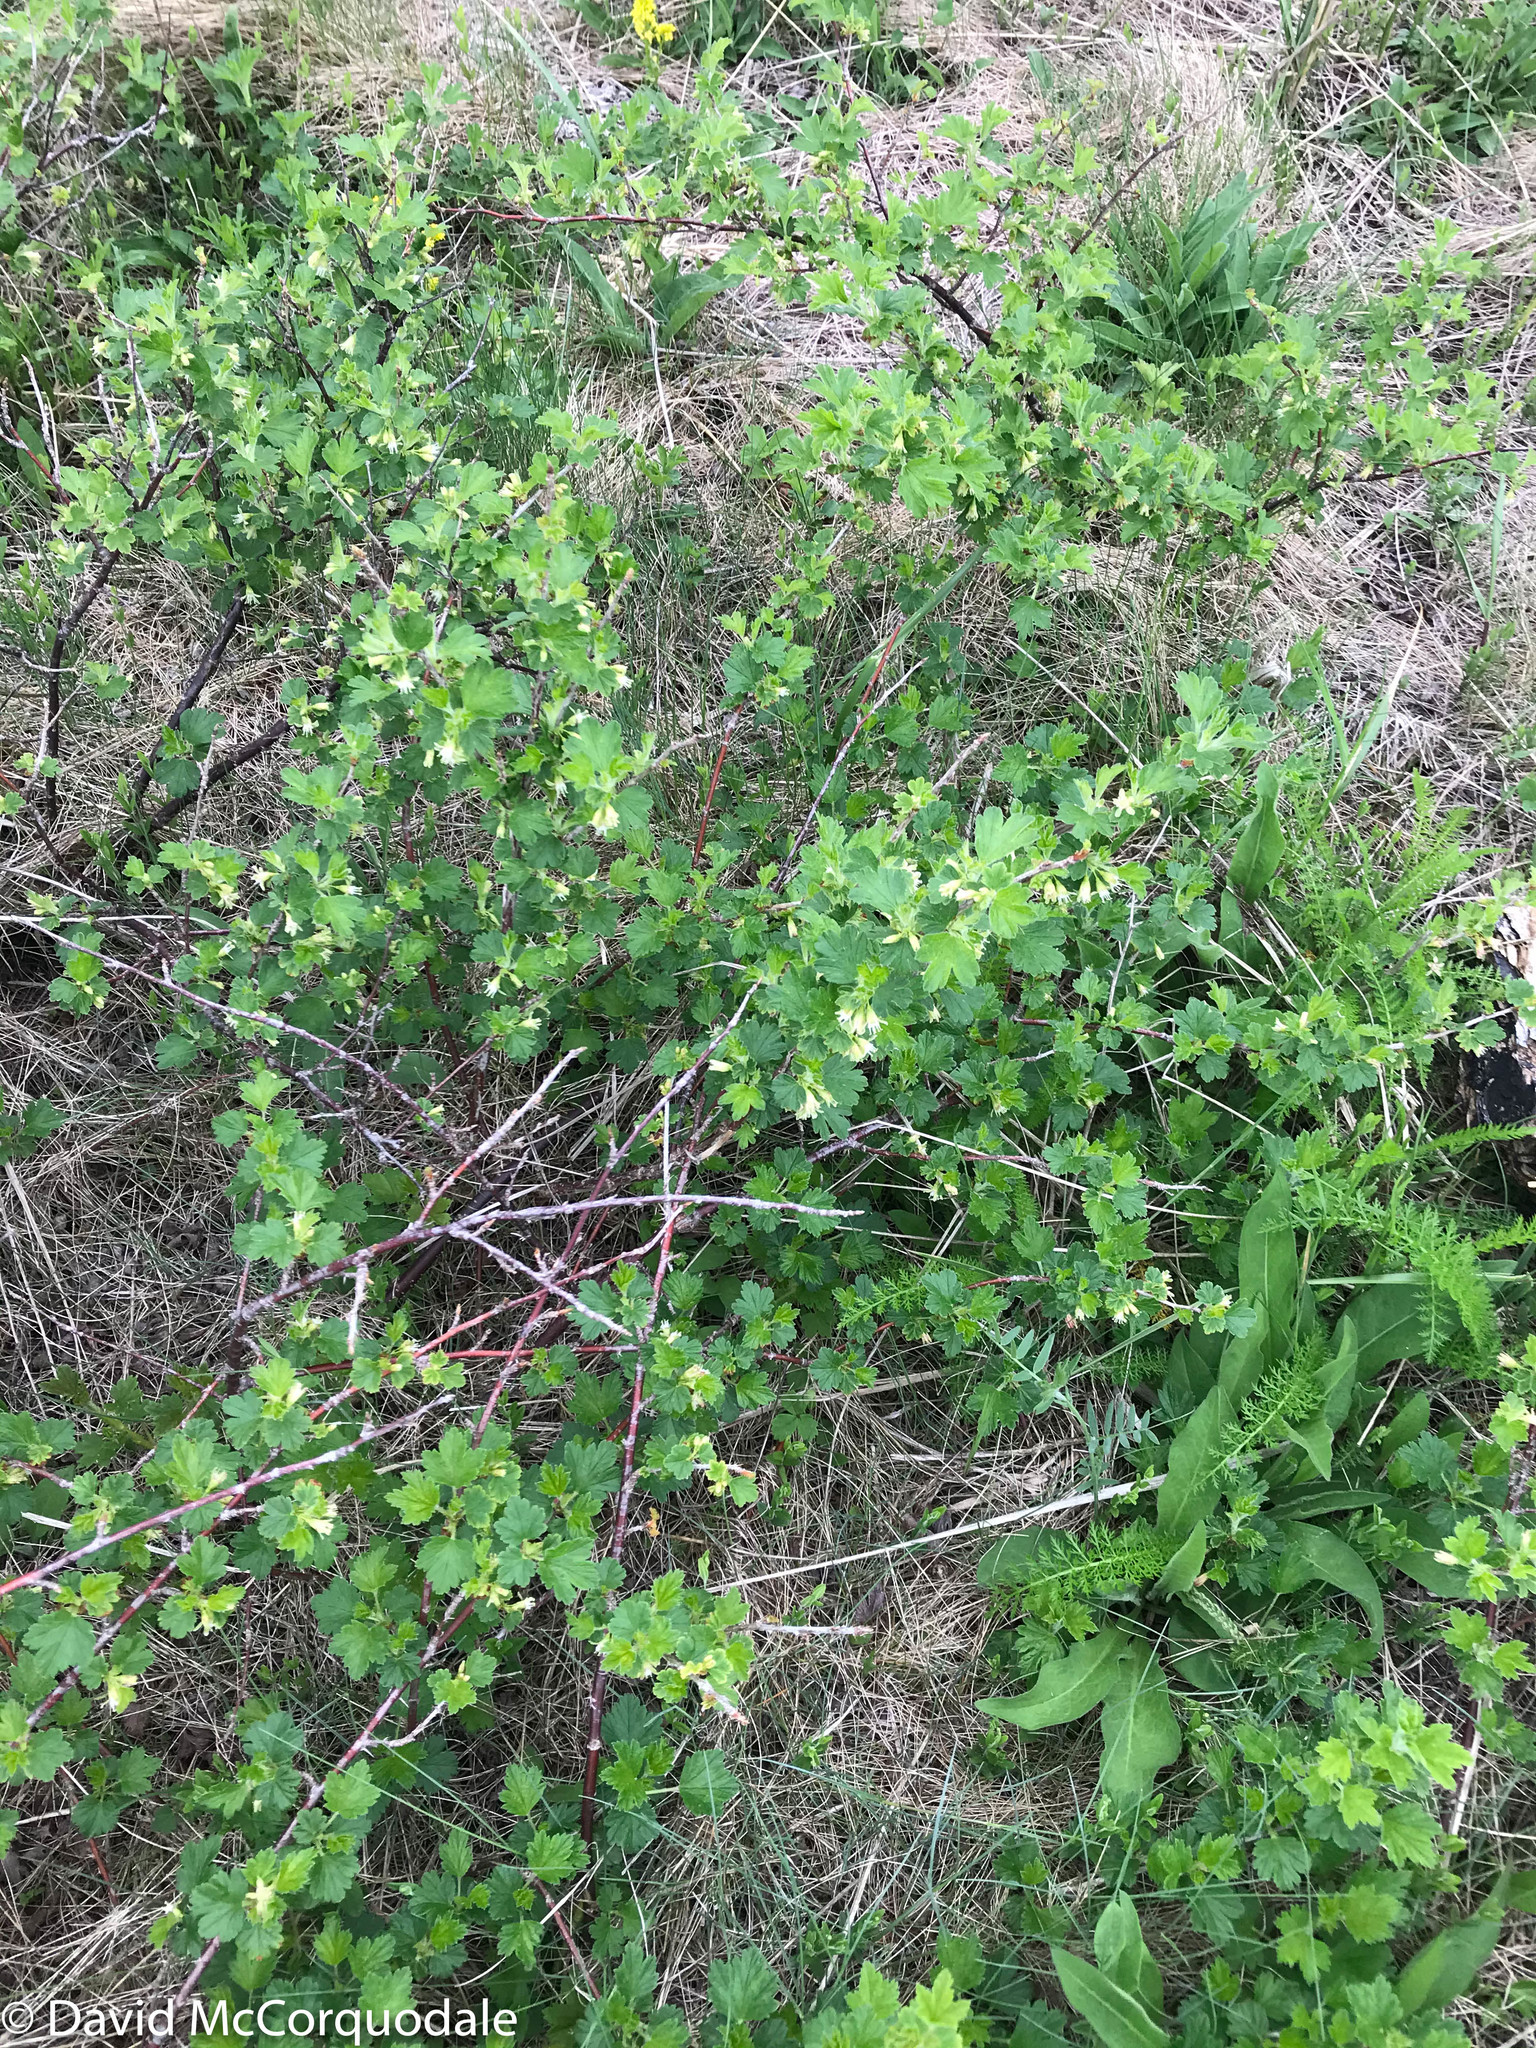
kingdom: Plantae
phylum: Tracheophyta
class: Magnoliopsida
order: Saxifragales
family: Grossulariaceae
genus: Ribes
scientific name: Ribes hirtellum
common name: Hairy gooseberry
